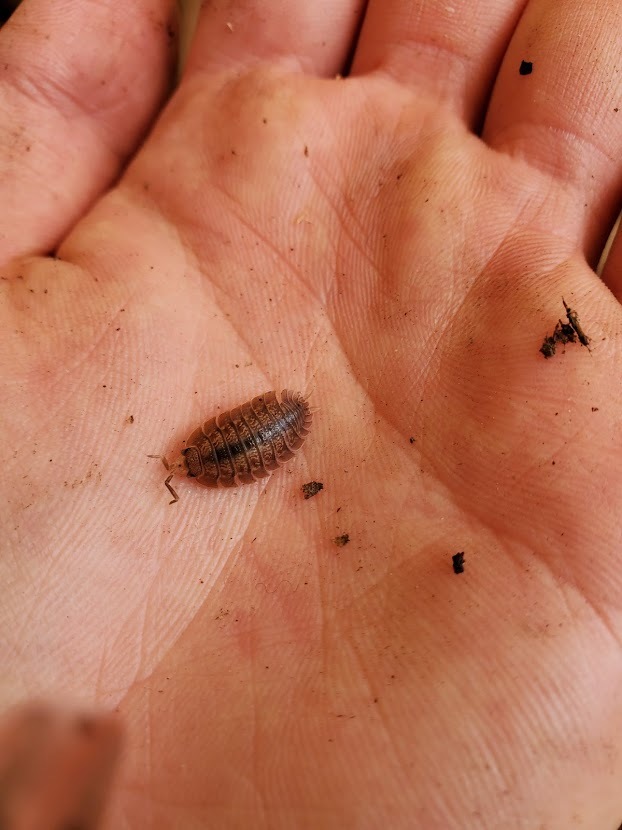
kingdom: Animalia
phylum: Arthropoda
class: Malacostraca
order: Isopoda
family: Porcellionidae
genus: Porcellio
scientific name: Porcellio dilatatus
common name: Isopod
